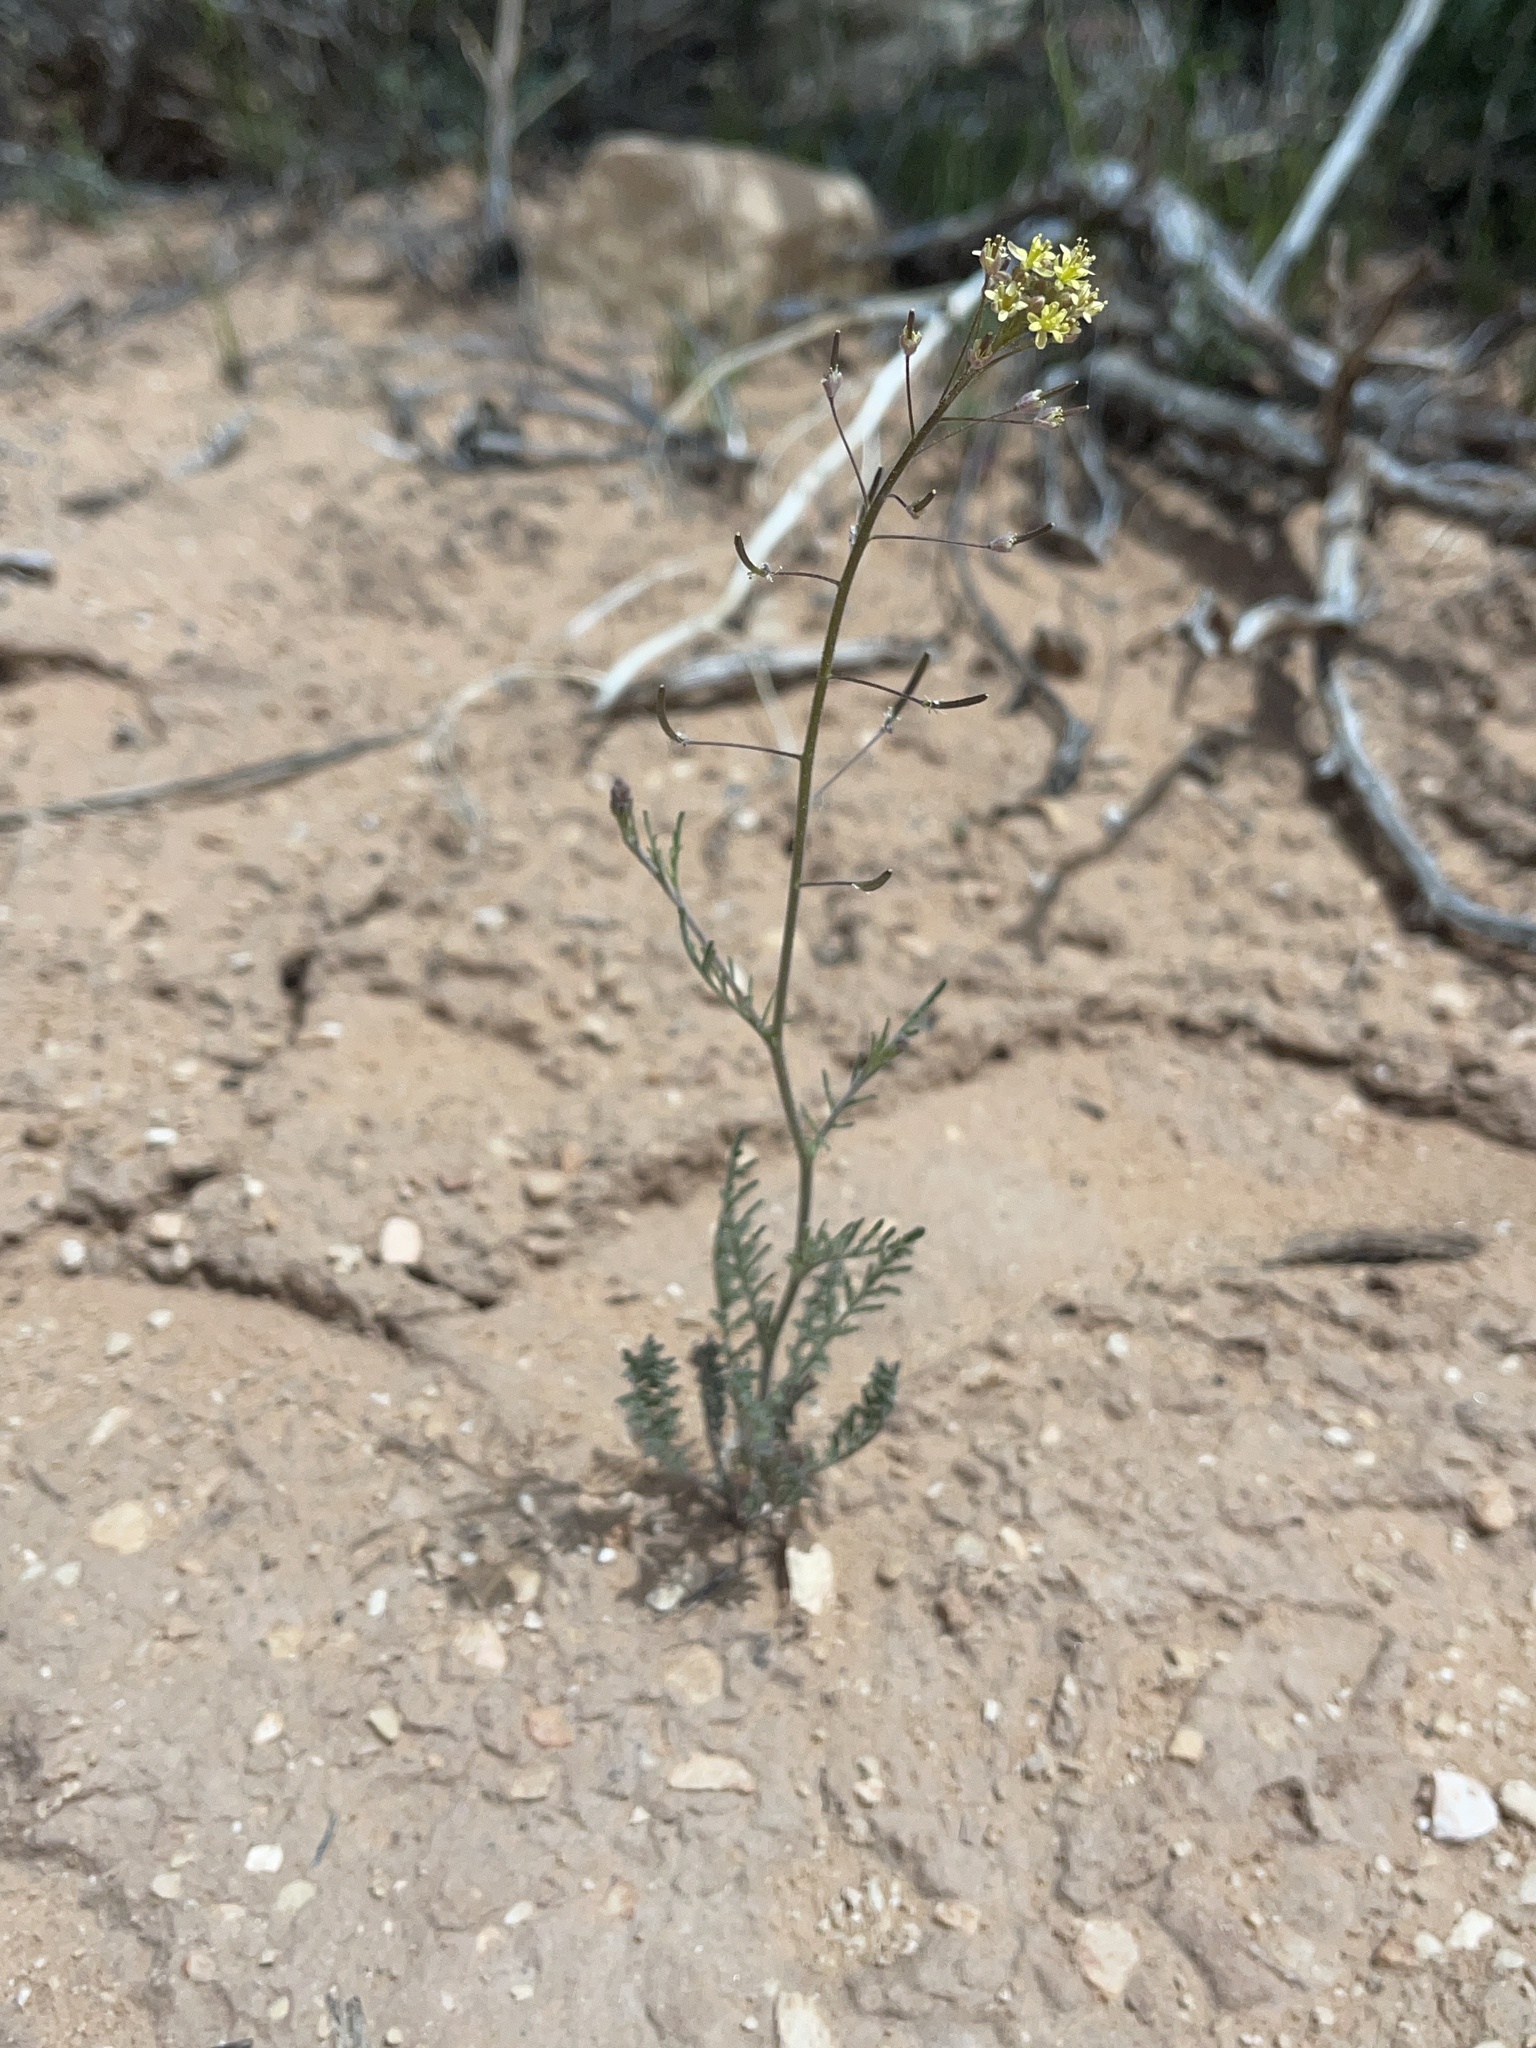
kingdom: Plantae
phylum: Tracheophyta
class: Magnoliopsida
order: Brassicales
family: Brassicaceae
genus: Descurainia
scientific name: Descurainia pinnata
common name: Western tansy mustard
